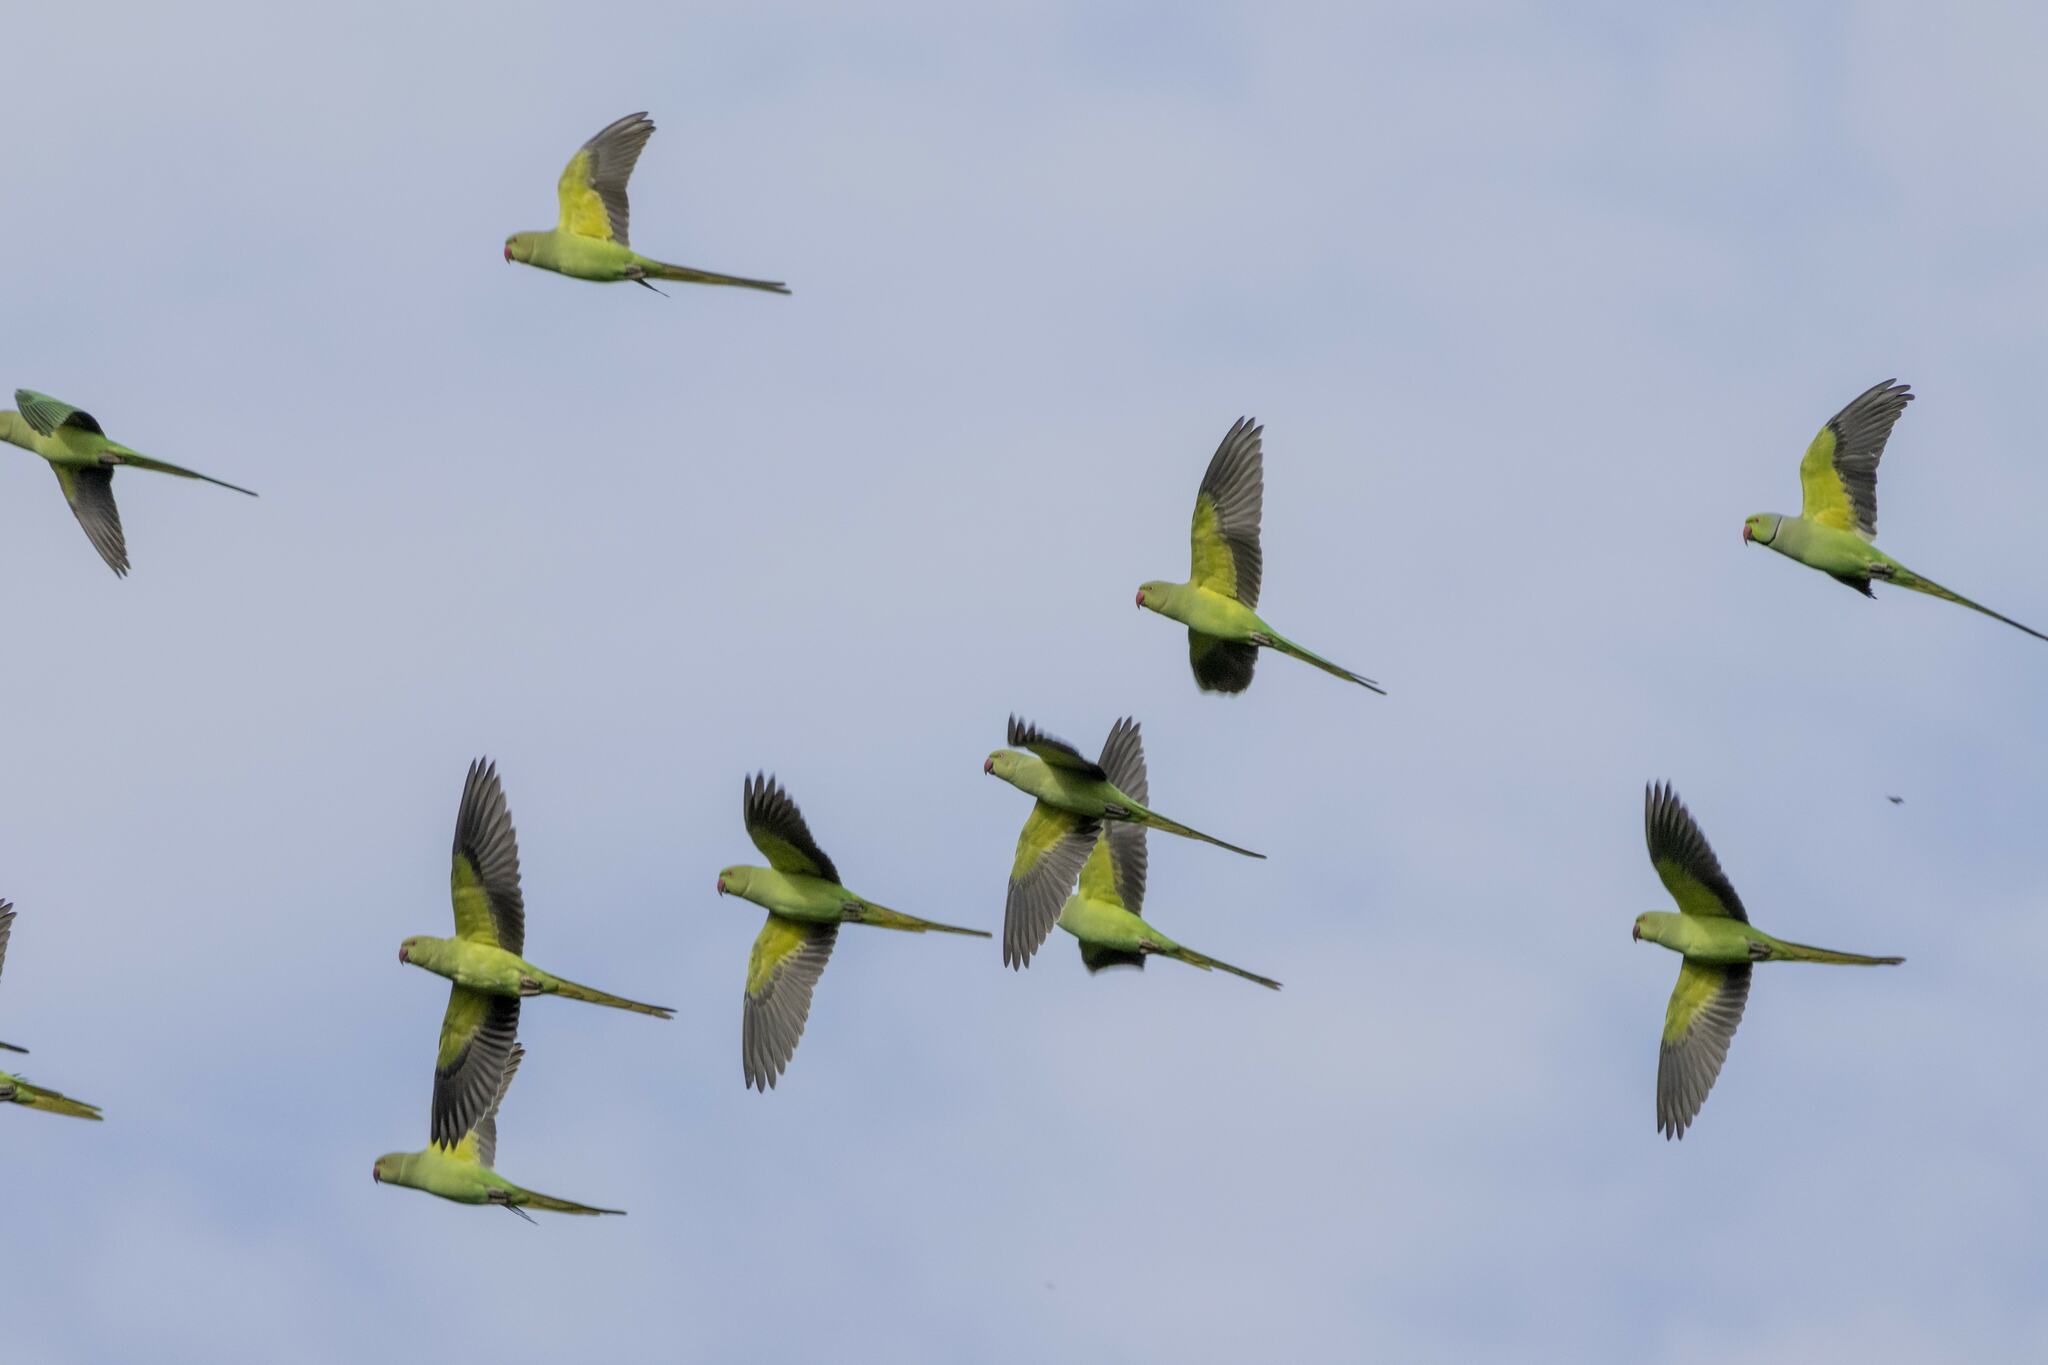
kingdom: Animalia
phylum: Chordata
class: Aves
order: Psittaciformes
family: Psittacidae
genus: Psittacula
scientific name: Psittacula krameri
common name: Rose-ringed parakeet
